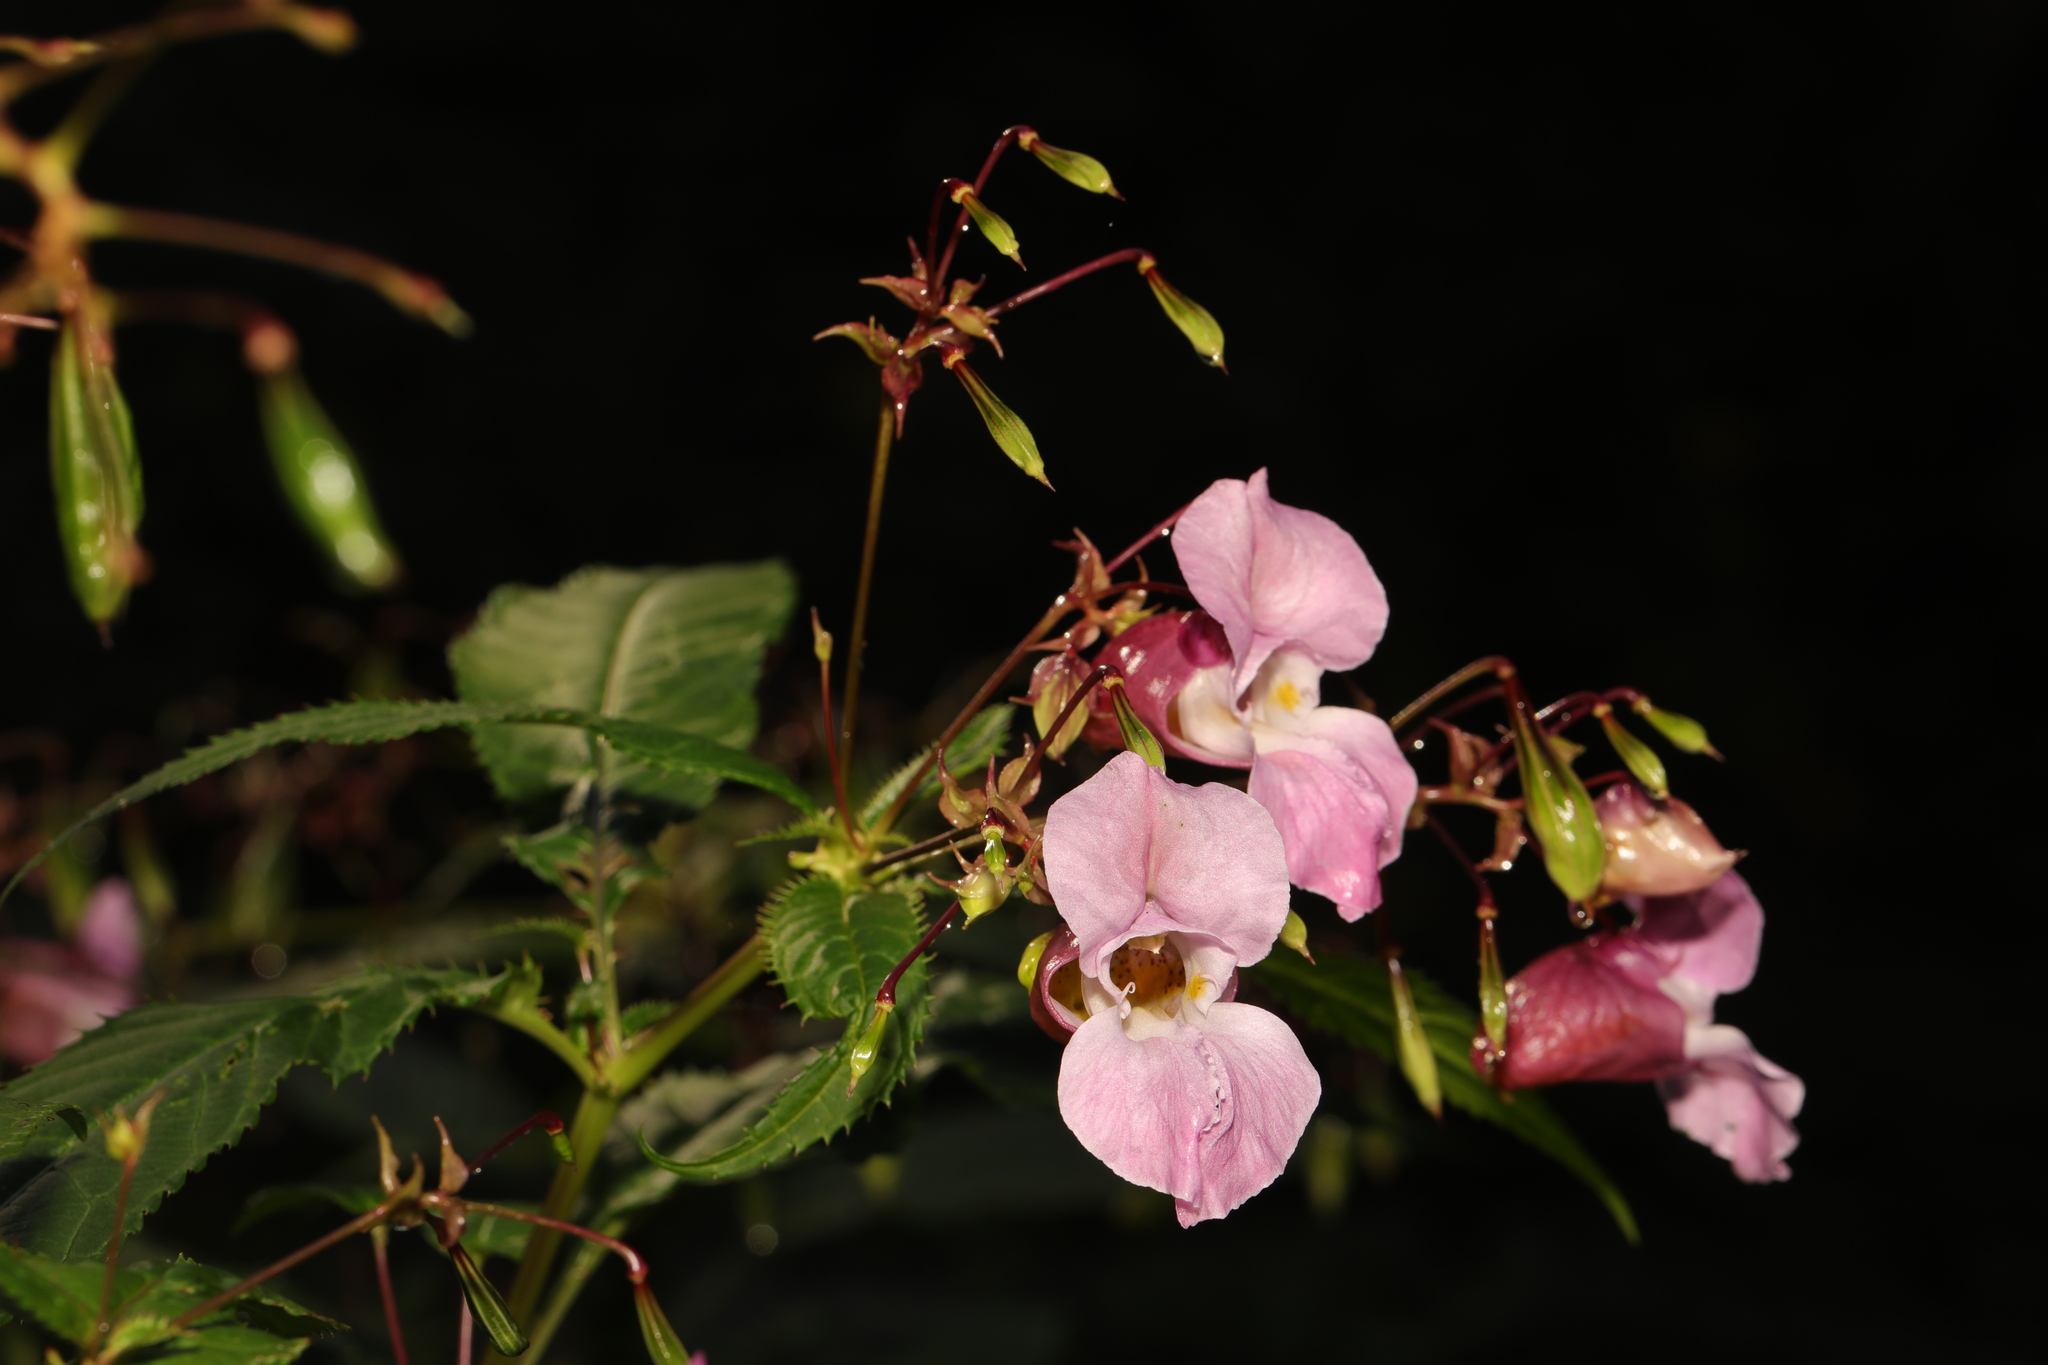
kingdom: Plantae
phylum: Tracheophyta
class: Magnoliopsida
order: Ericales
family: Balsaminaceae
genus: Impatiens
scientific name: Impatiens glandulifera
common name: Himalayan balsam
